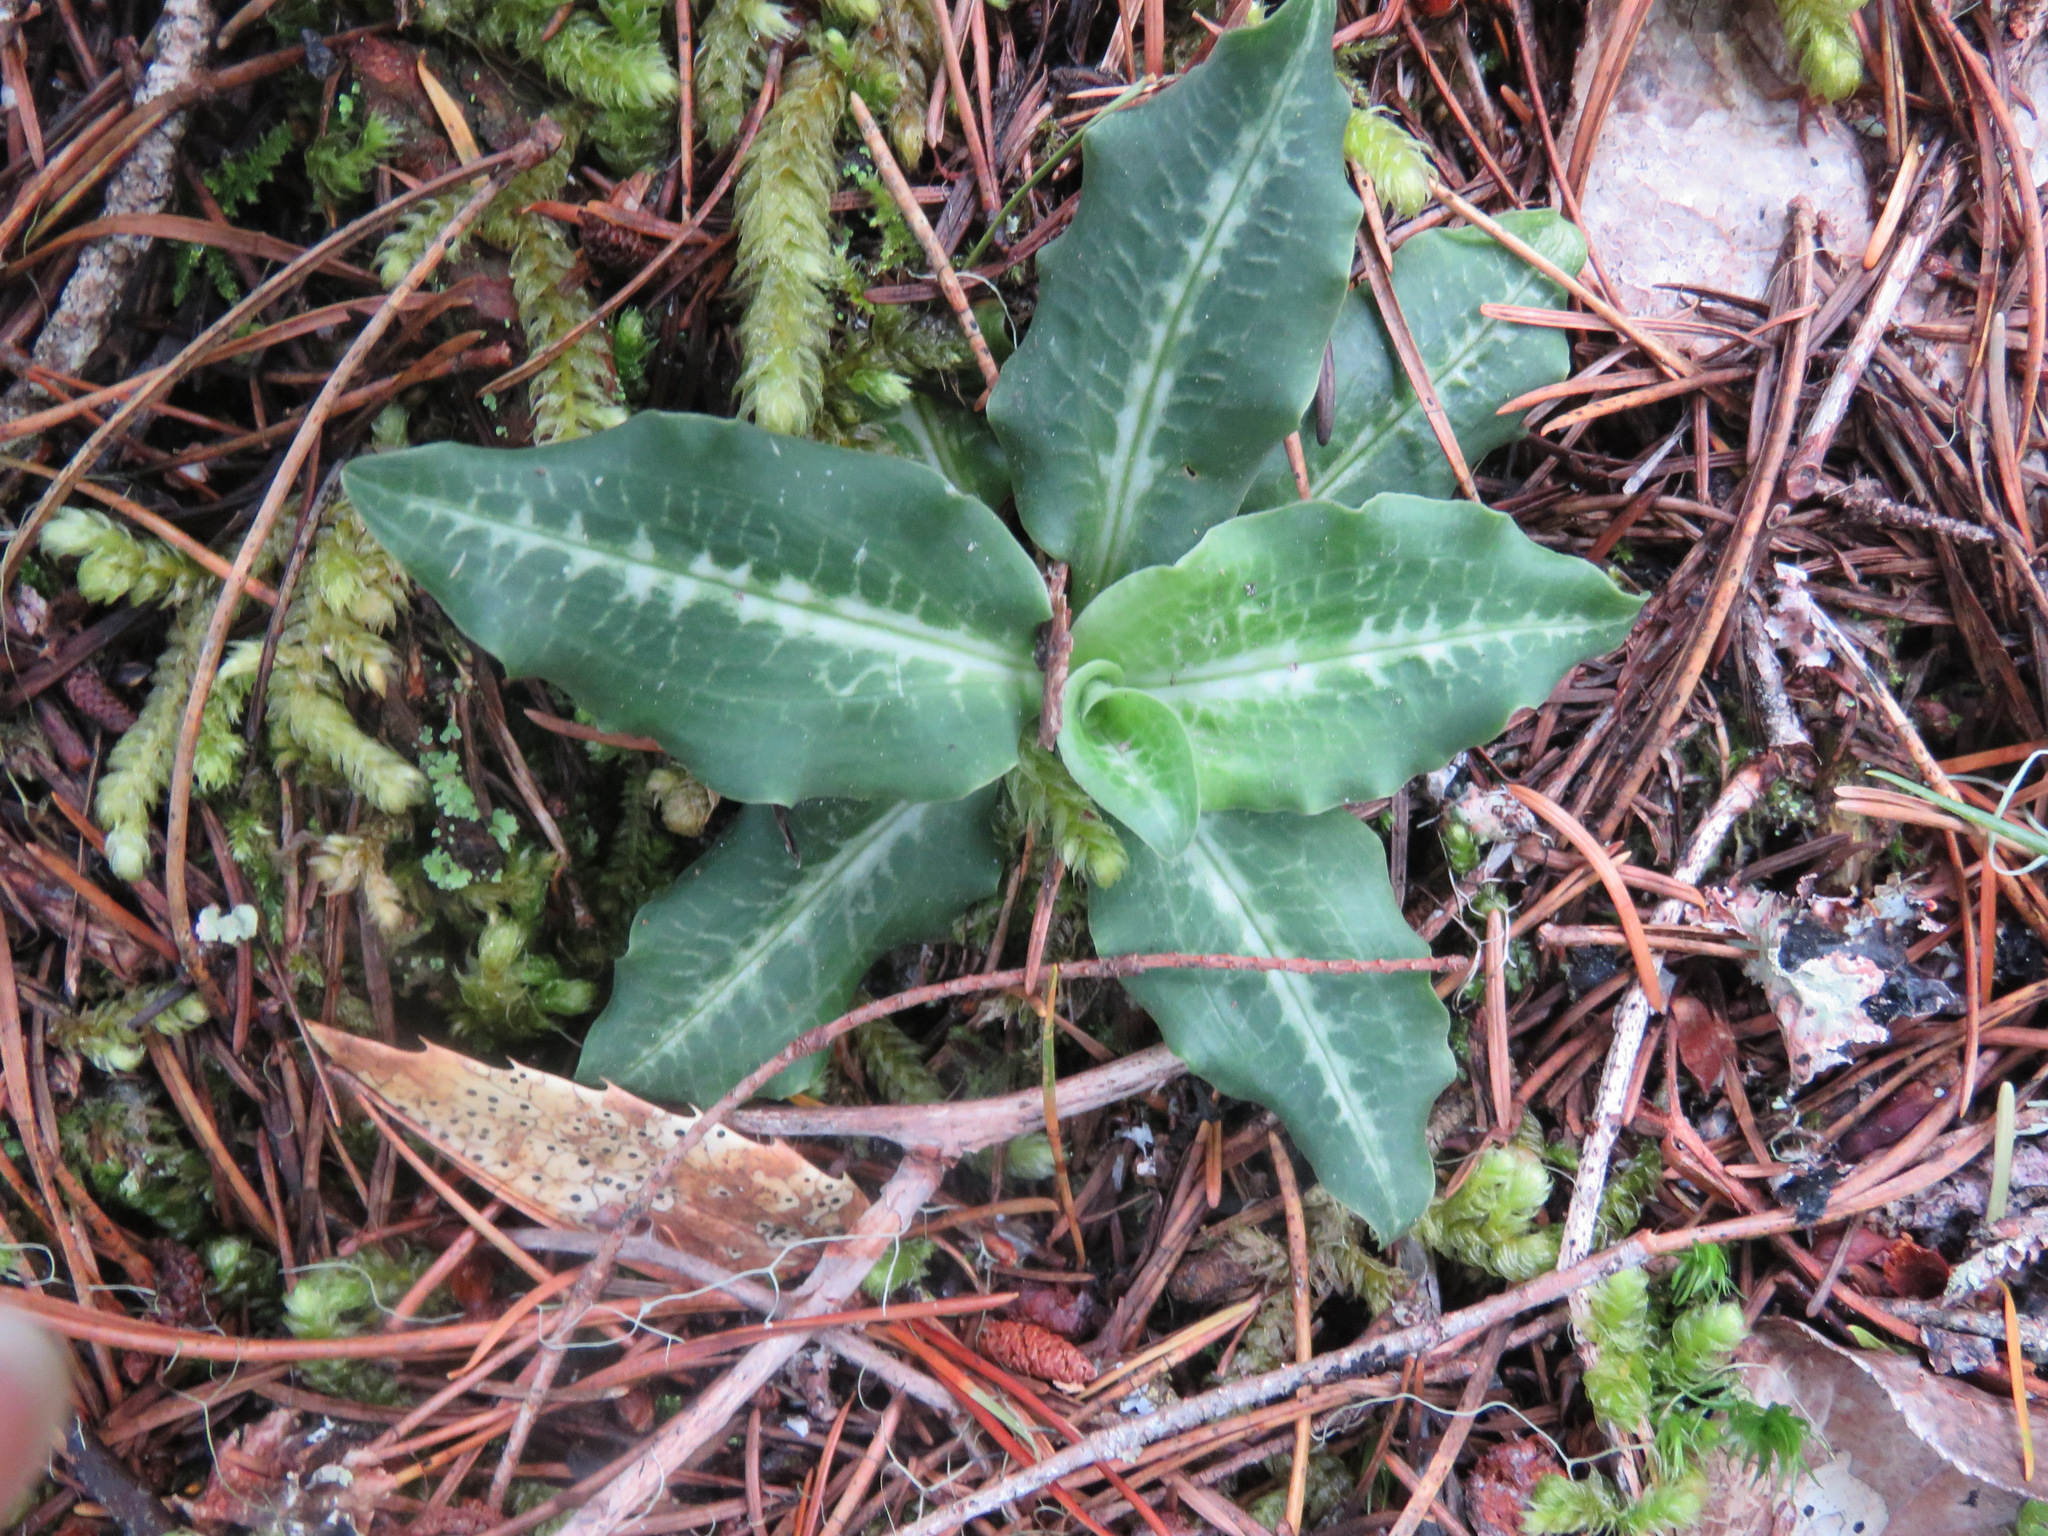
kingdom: Plantae
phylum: Tracheophyta
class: Liliopsida
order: Asparagales
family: Orchidaceae
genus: Goodyera
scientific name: Goodyera oblongifolia
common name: Giant rattlesnake-plantain
